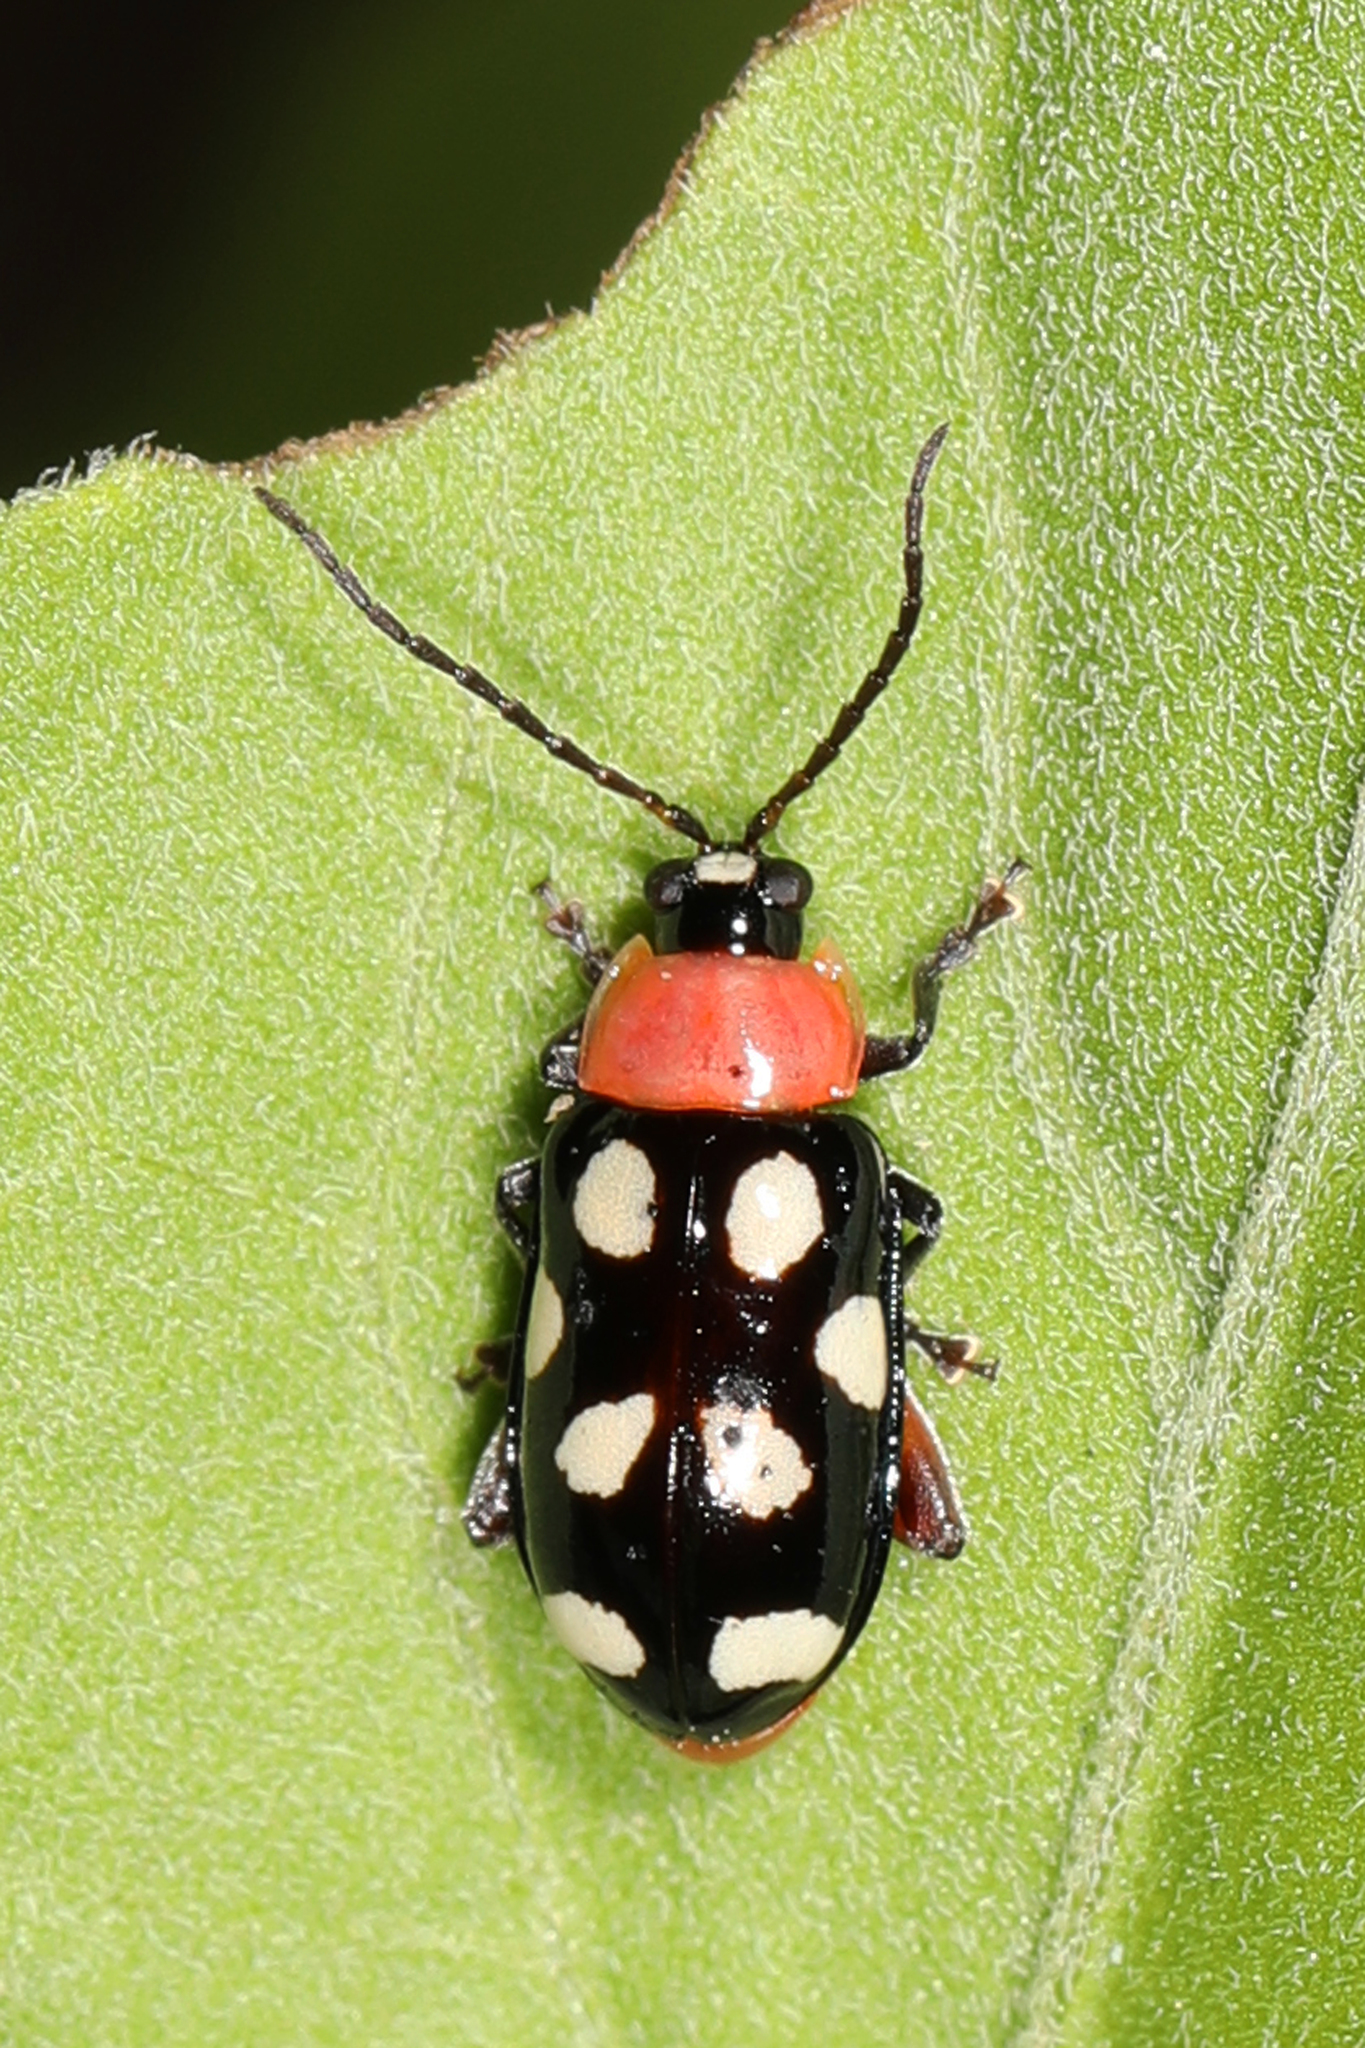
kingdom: Animalia
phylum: Arthropoda
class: Insecta
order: Coleoptera
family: Chrysomelidae
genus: Omophoita
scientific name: Omophoita cyanipennis
